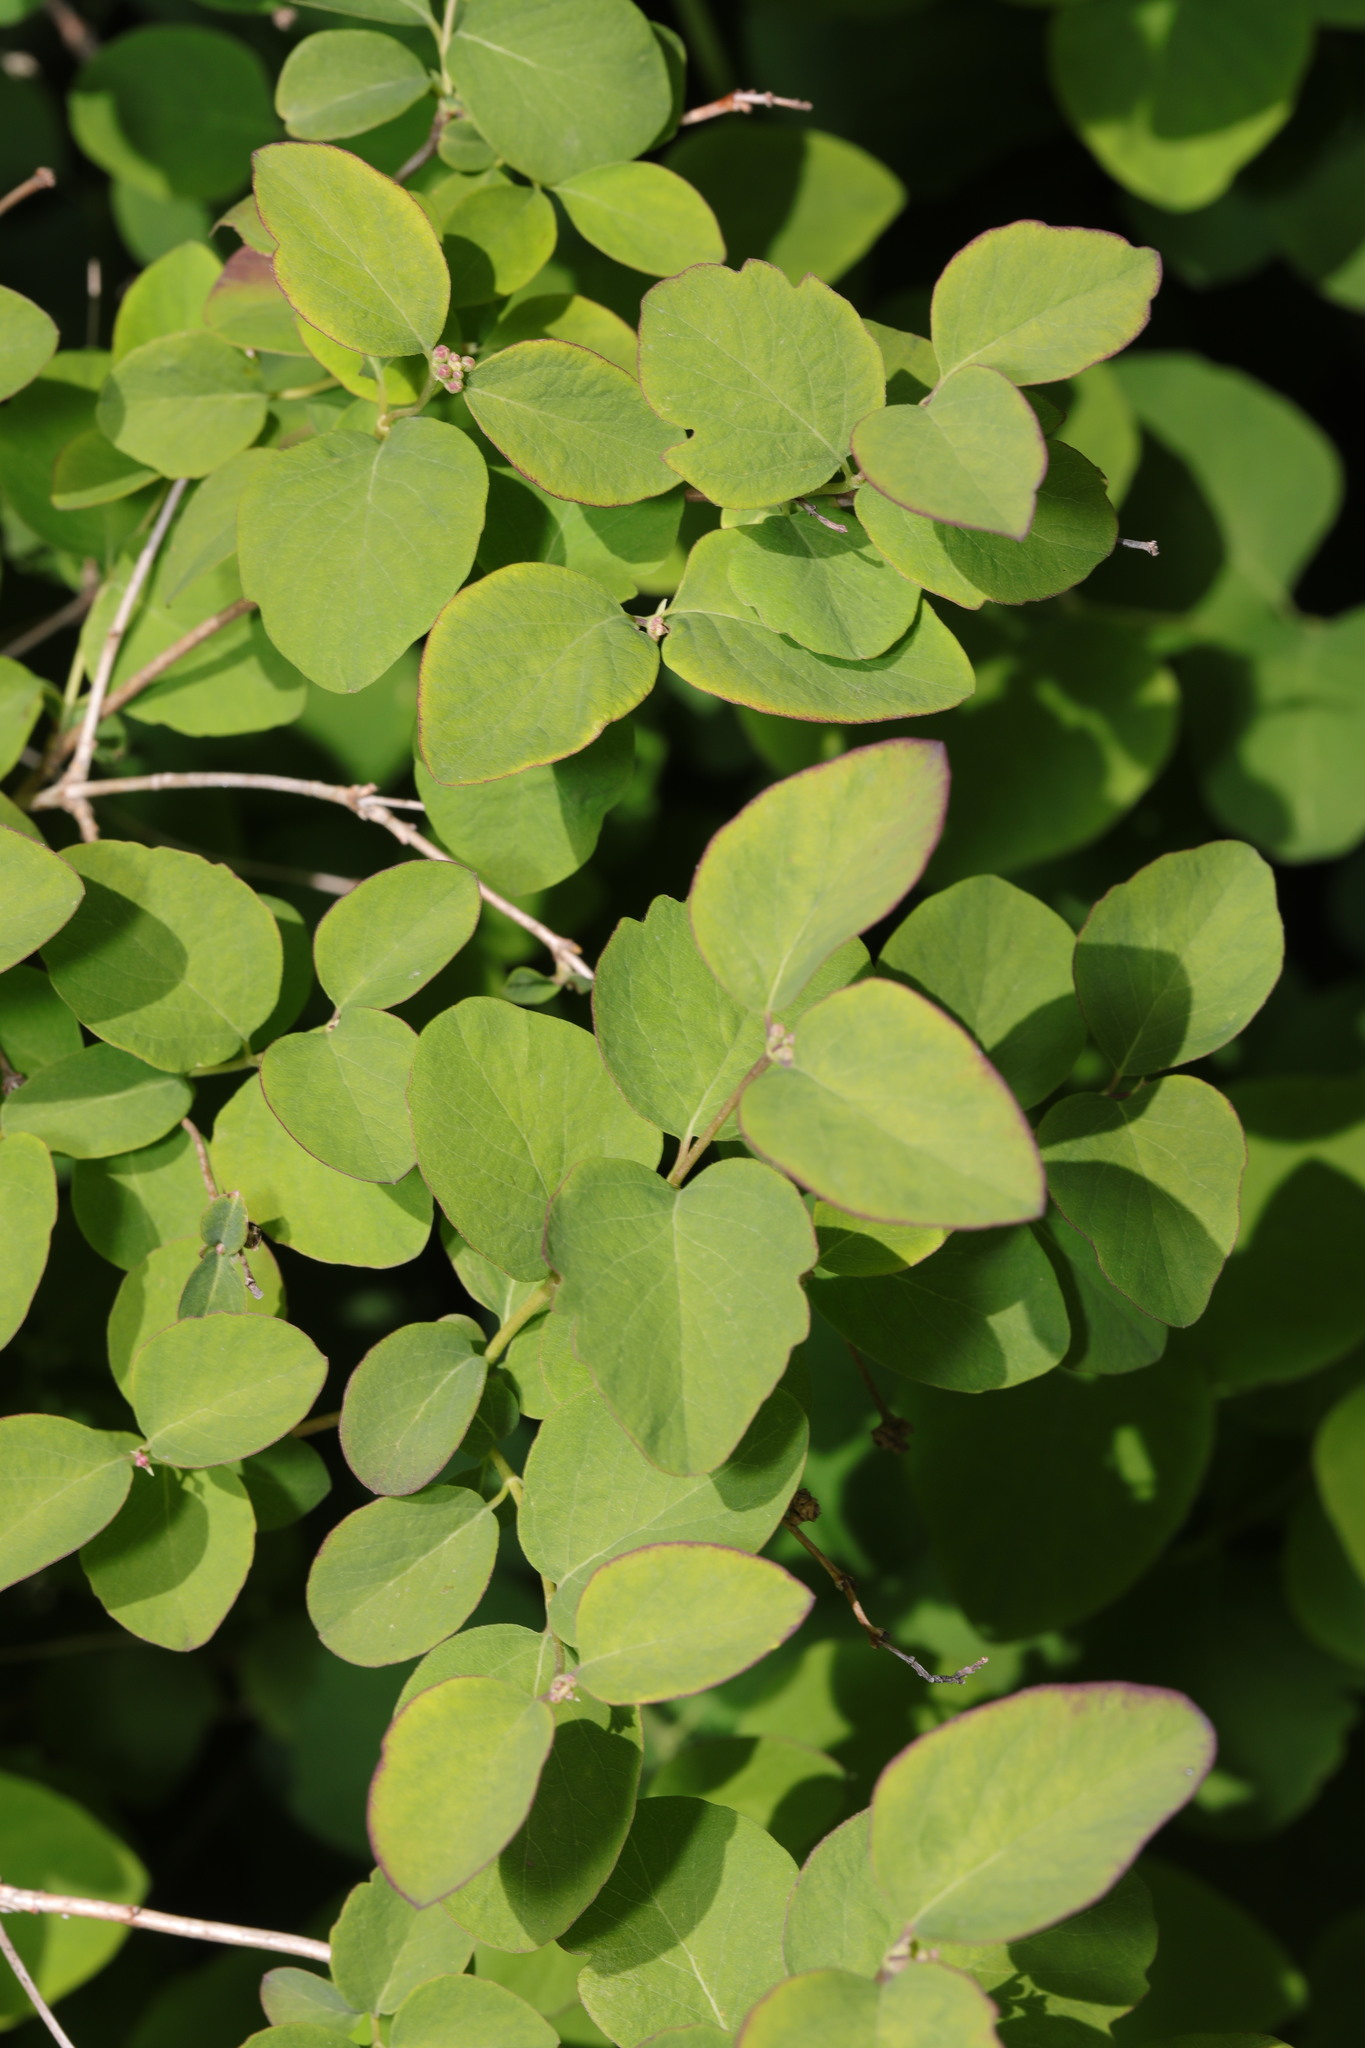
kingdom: Plantae
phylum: Tracheophyta
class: Magnoliopsida
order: Dipsacales
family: Caprifoliaceae
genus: Symphoricarpos
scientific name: Symphoricarpos albus
